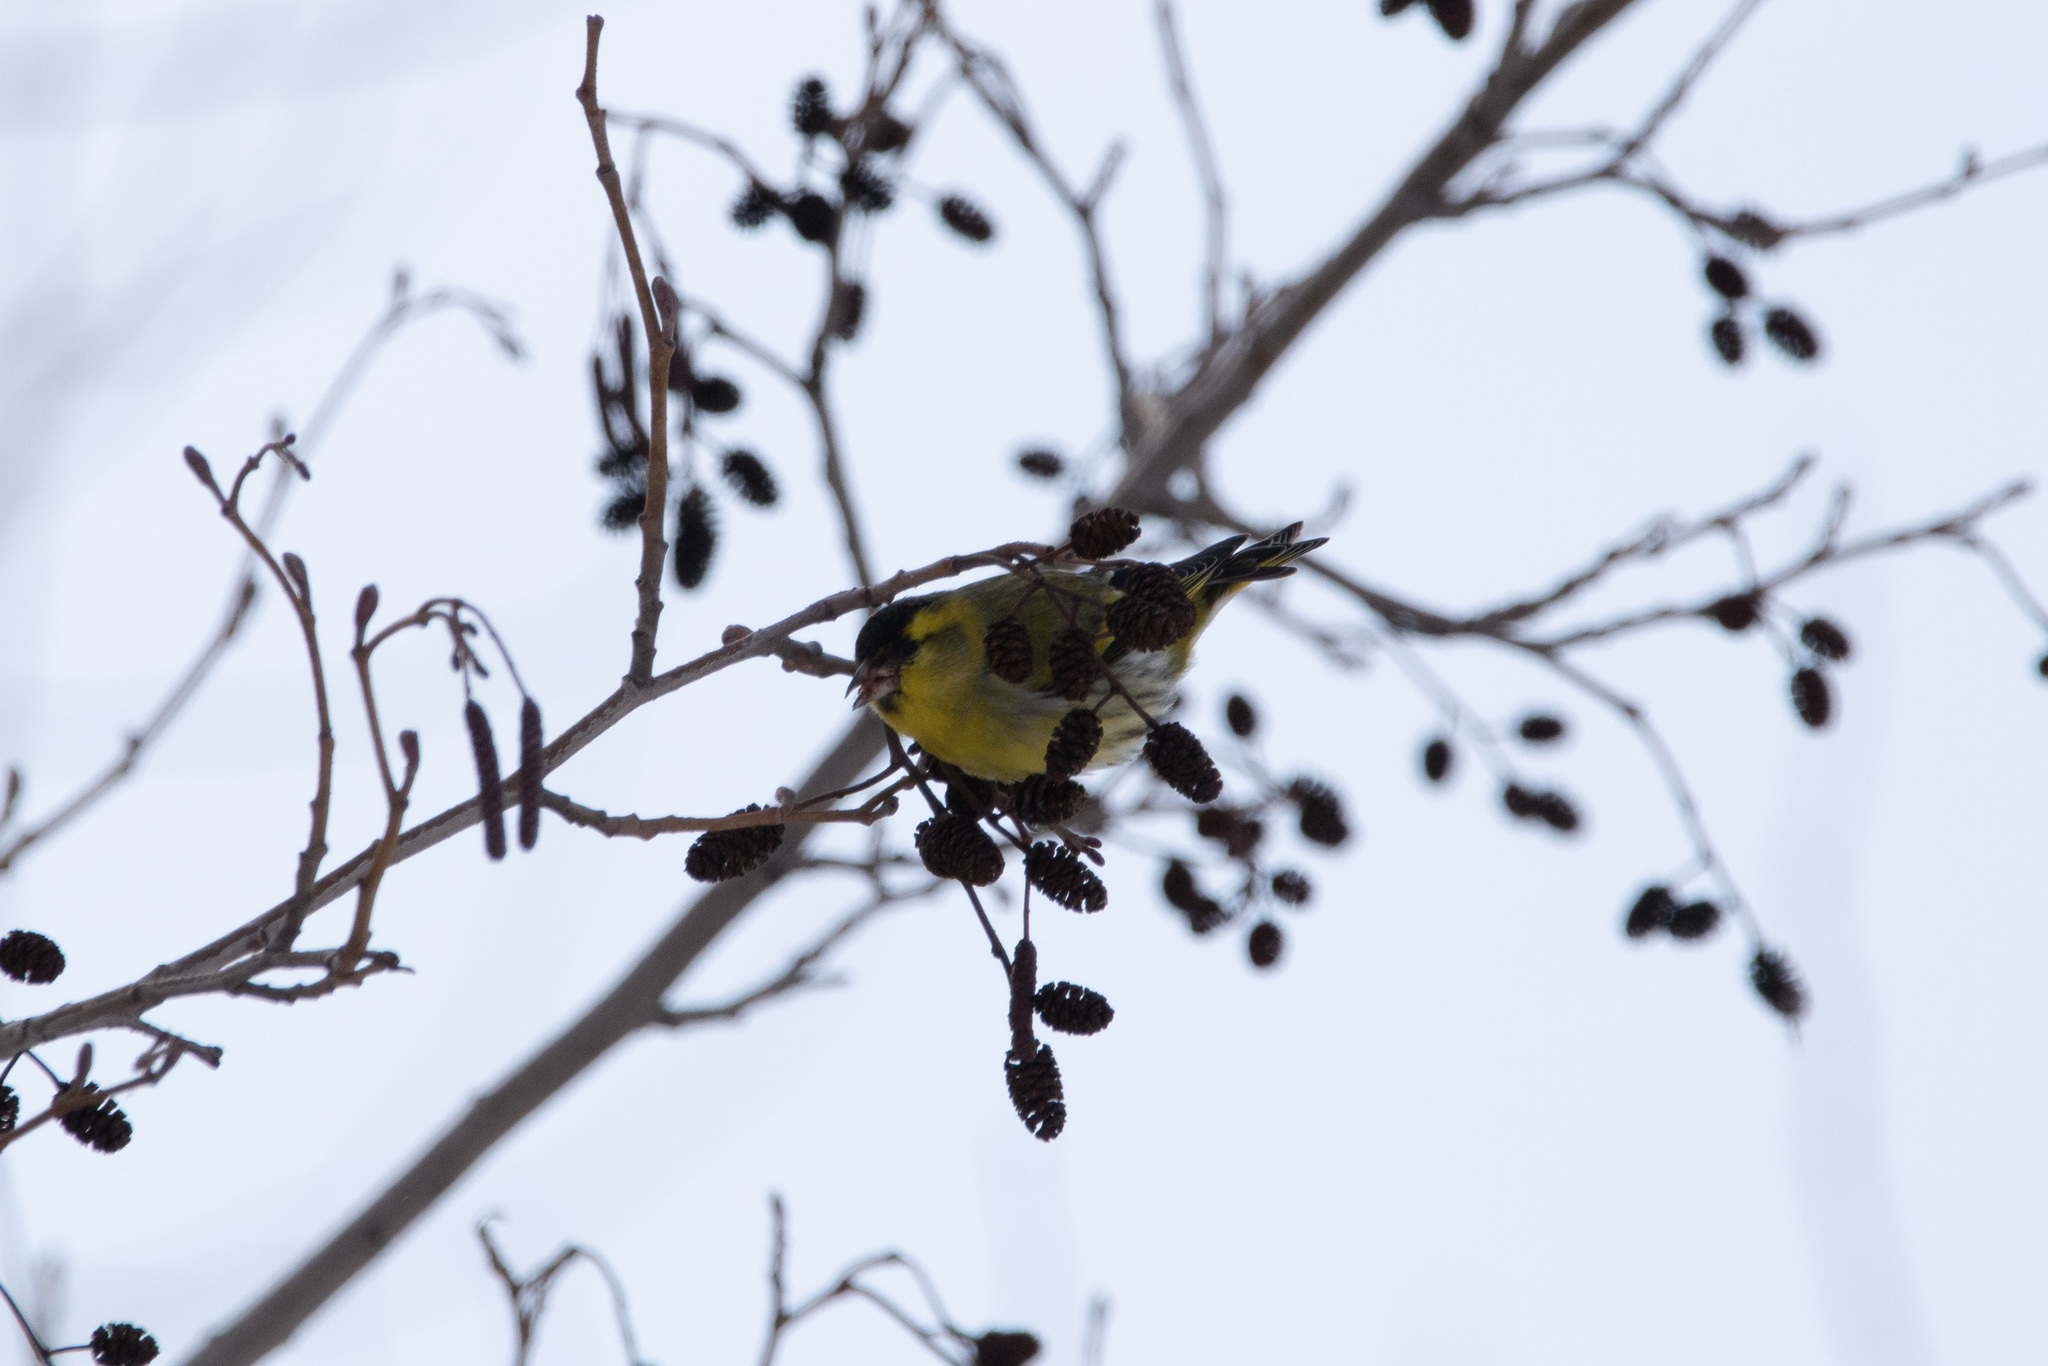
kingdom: Animalia
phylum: Chordata
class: Aves
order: Passeriformes
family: Fringillidae
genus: Spinus
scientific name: Spinus spinus
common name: Eurasian siskin
